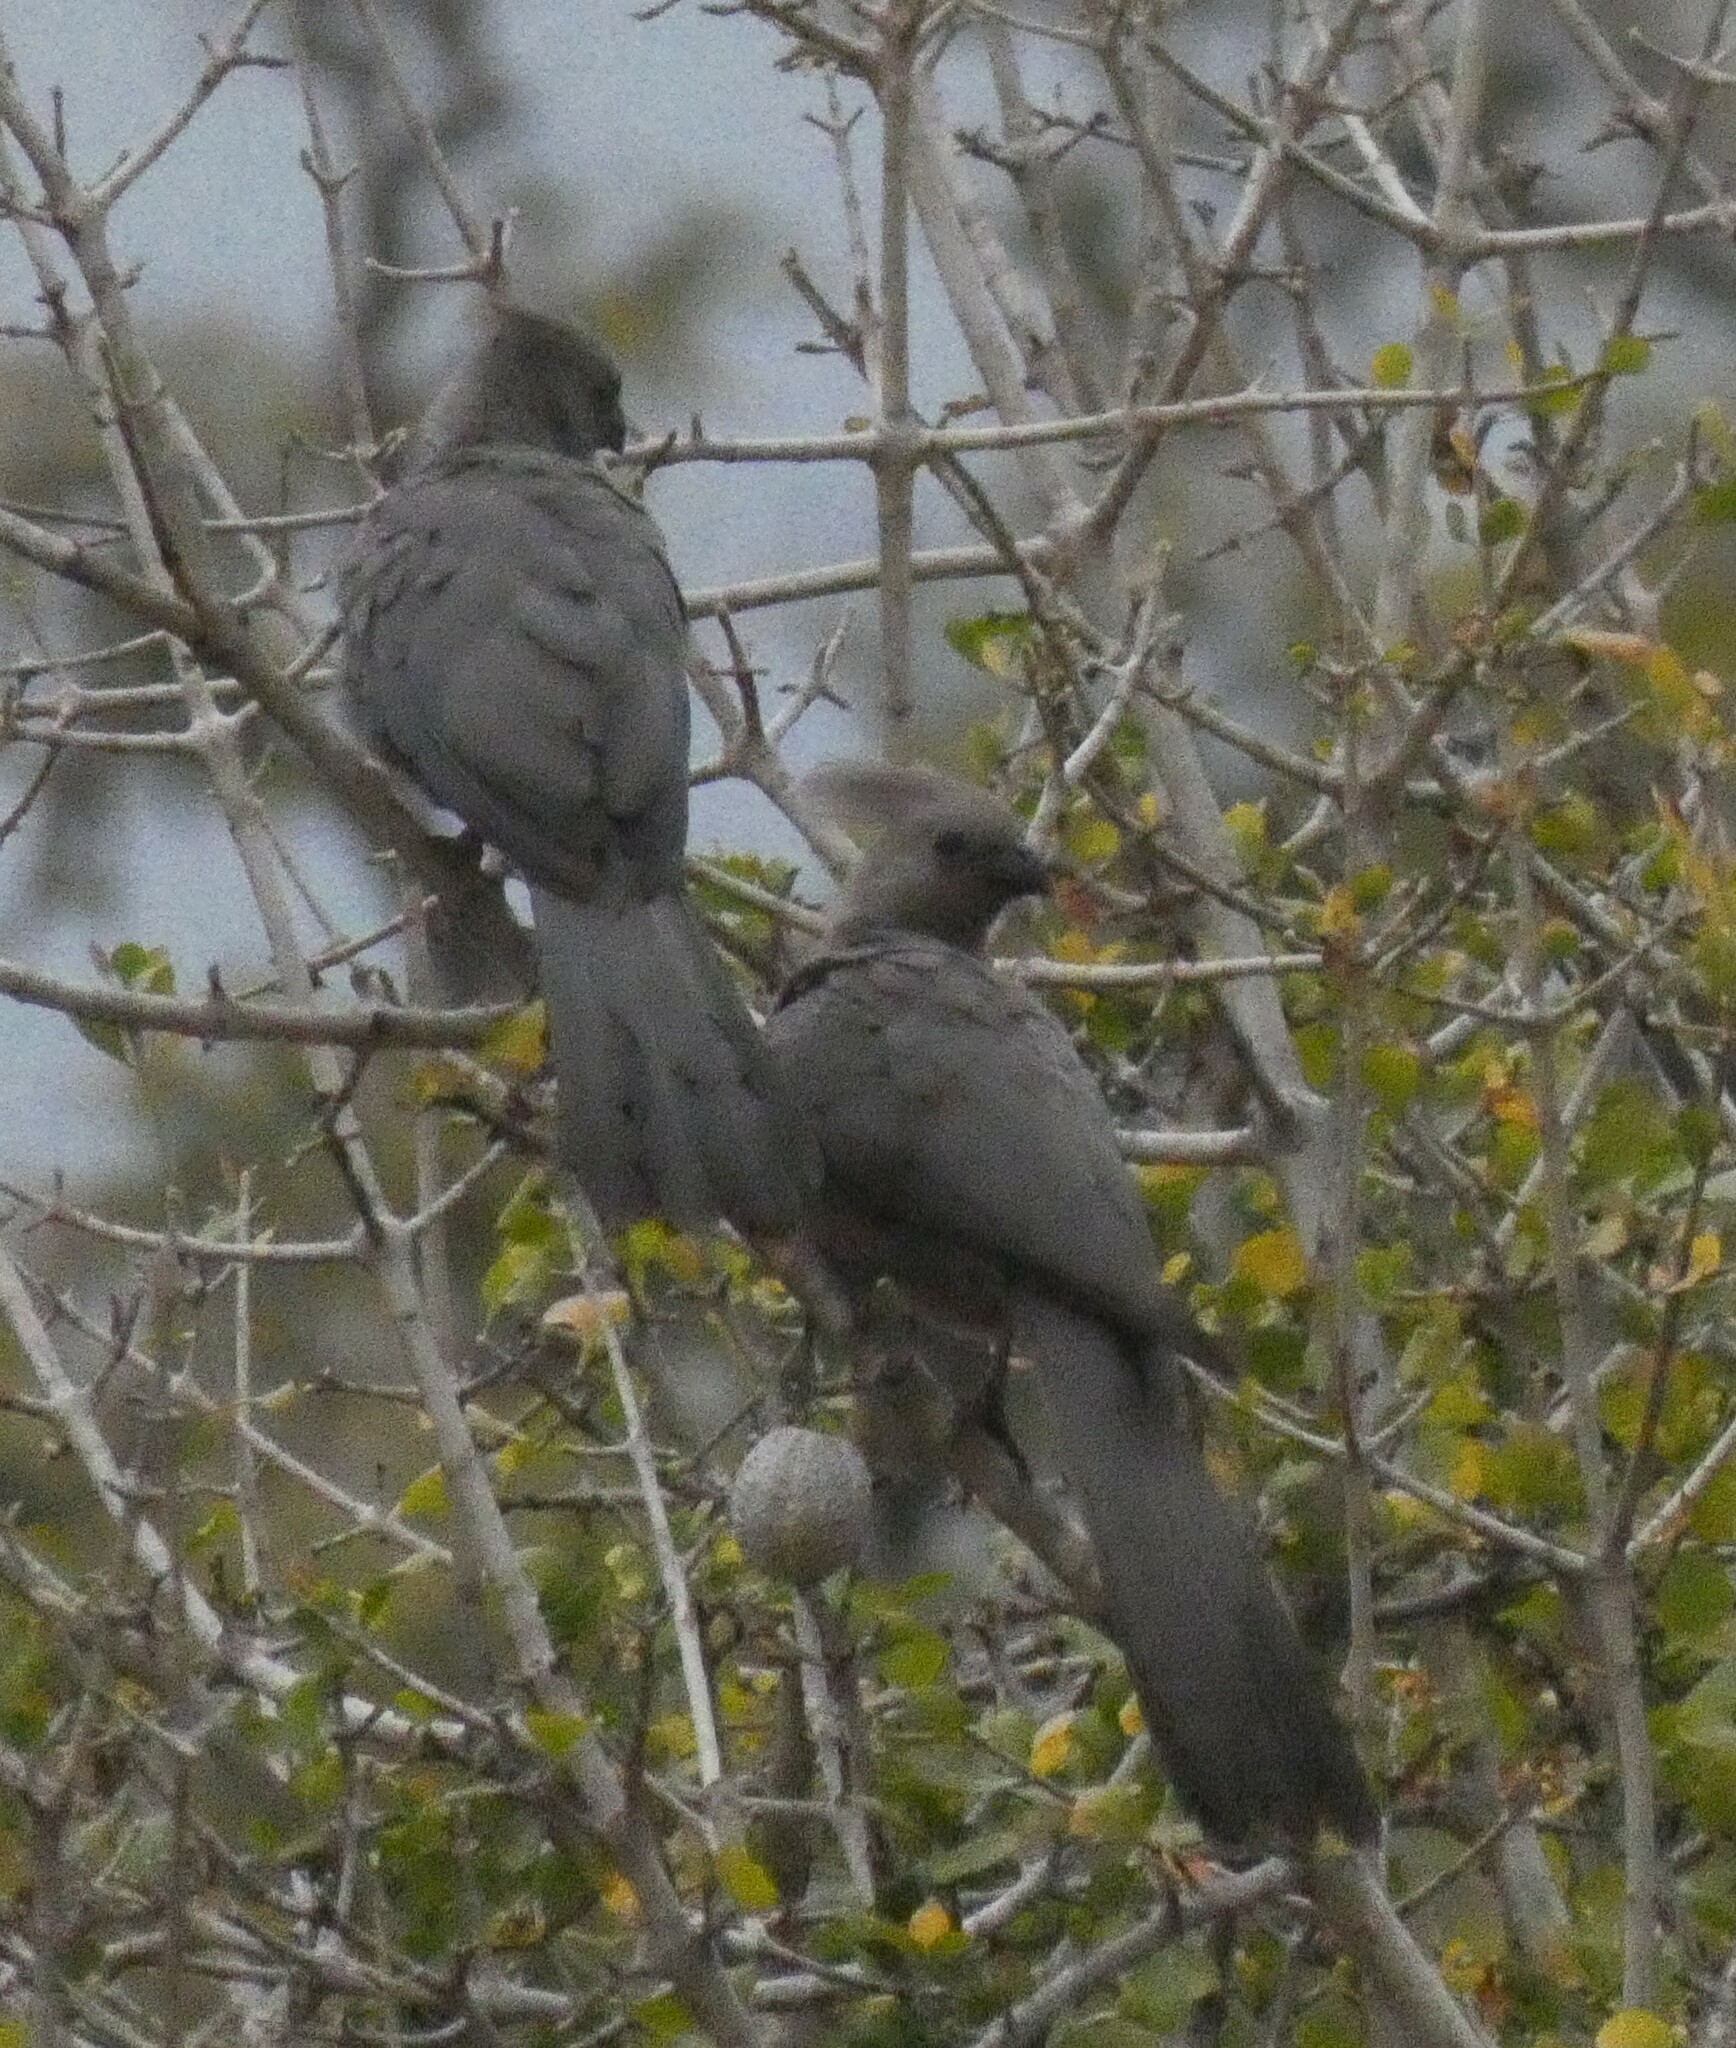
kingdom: Animalia
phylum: Chordata
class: Aves
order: Musophagiformes
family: Musophagidae
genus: Corythaixoides
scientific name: Corythaixoides concolor
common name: Grey go-away-bird
